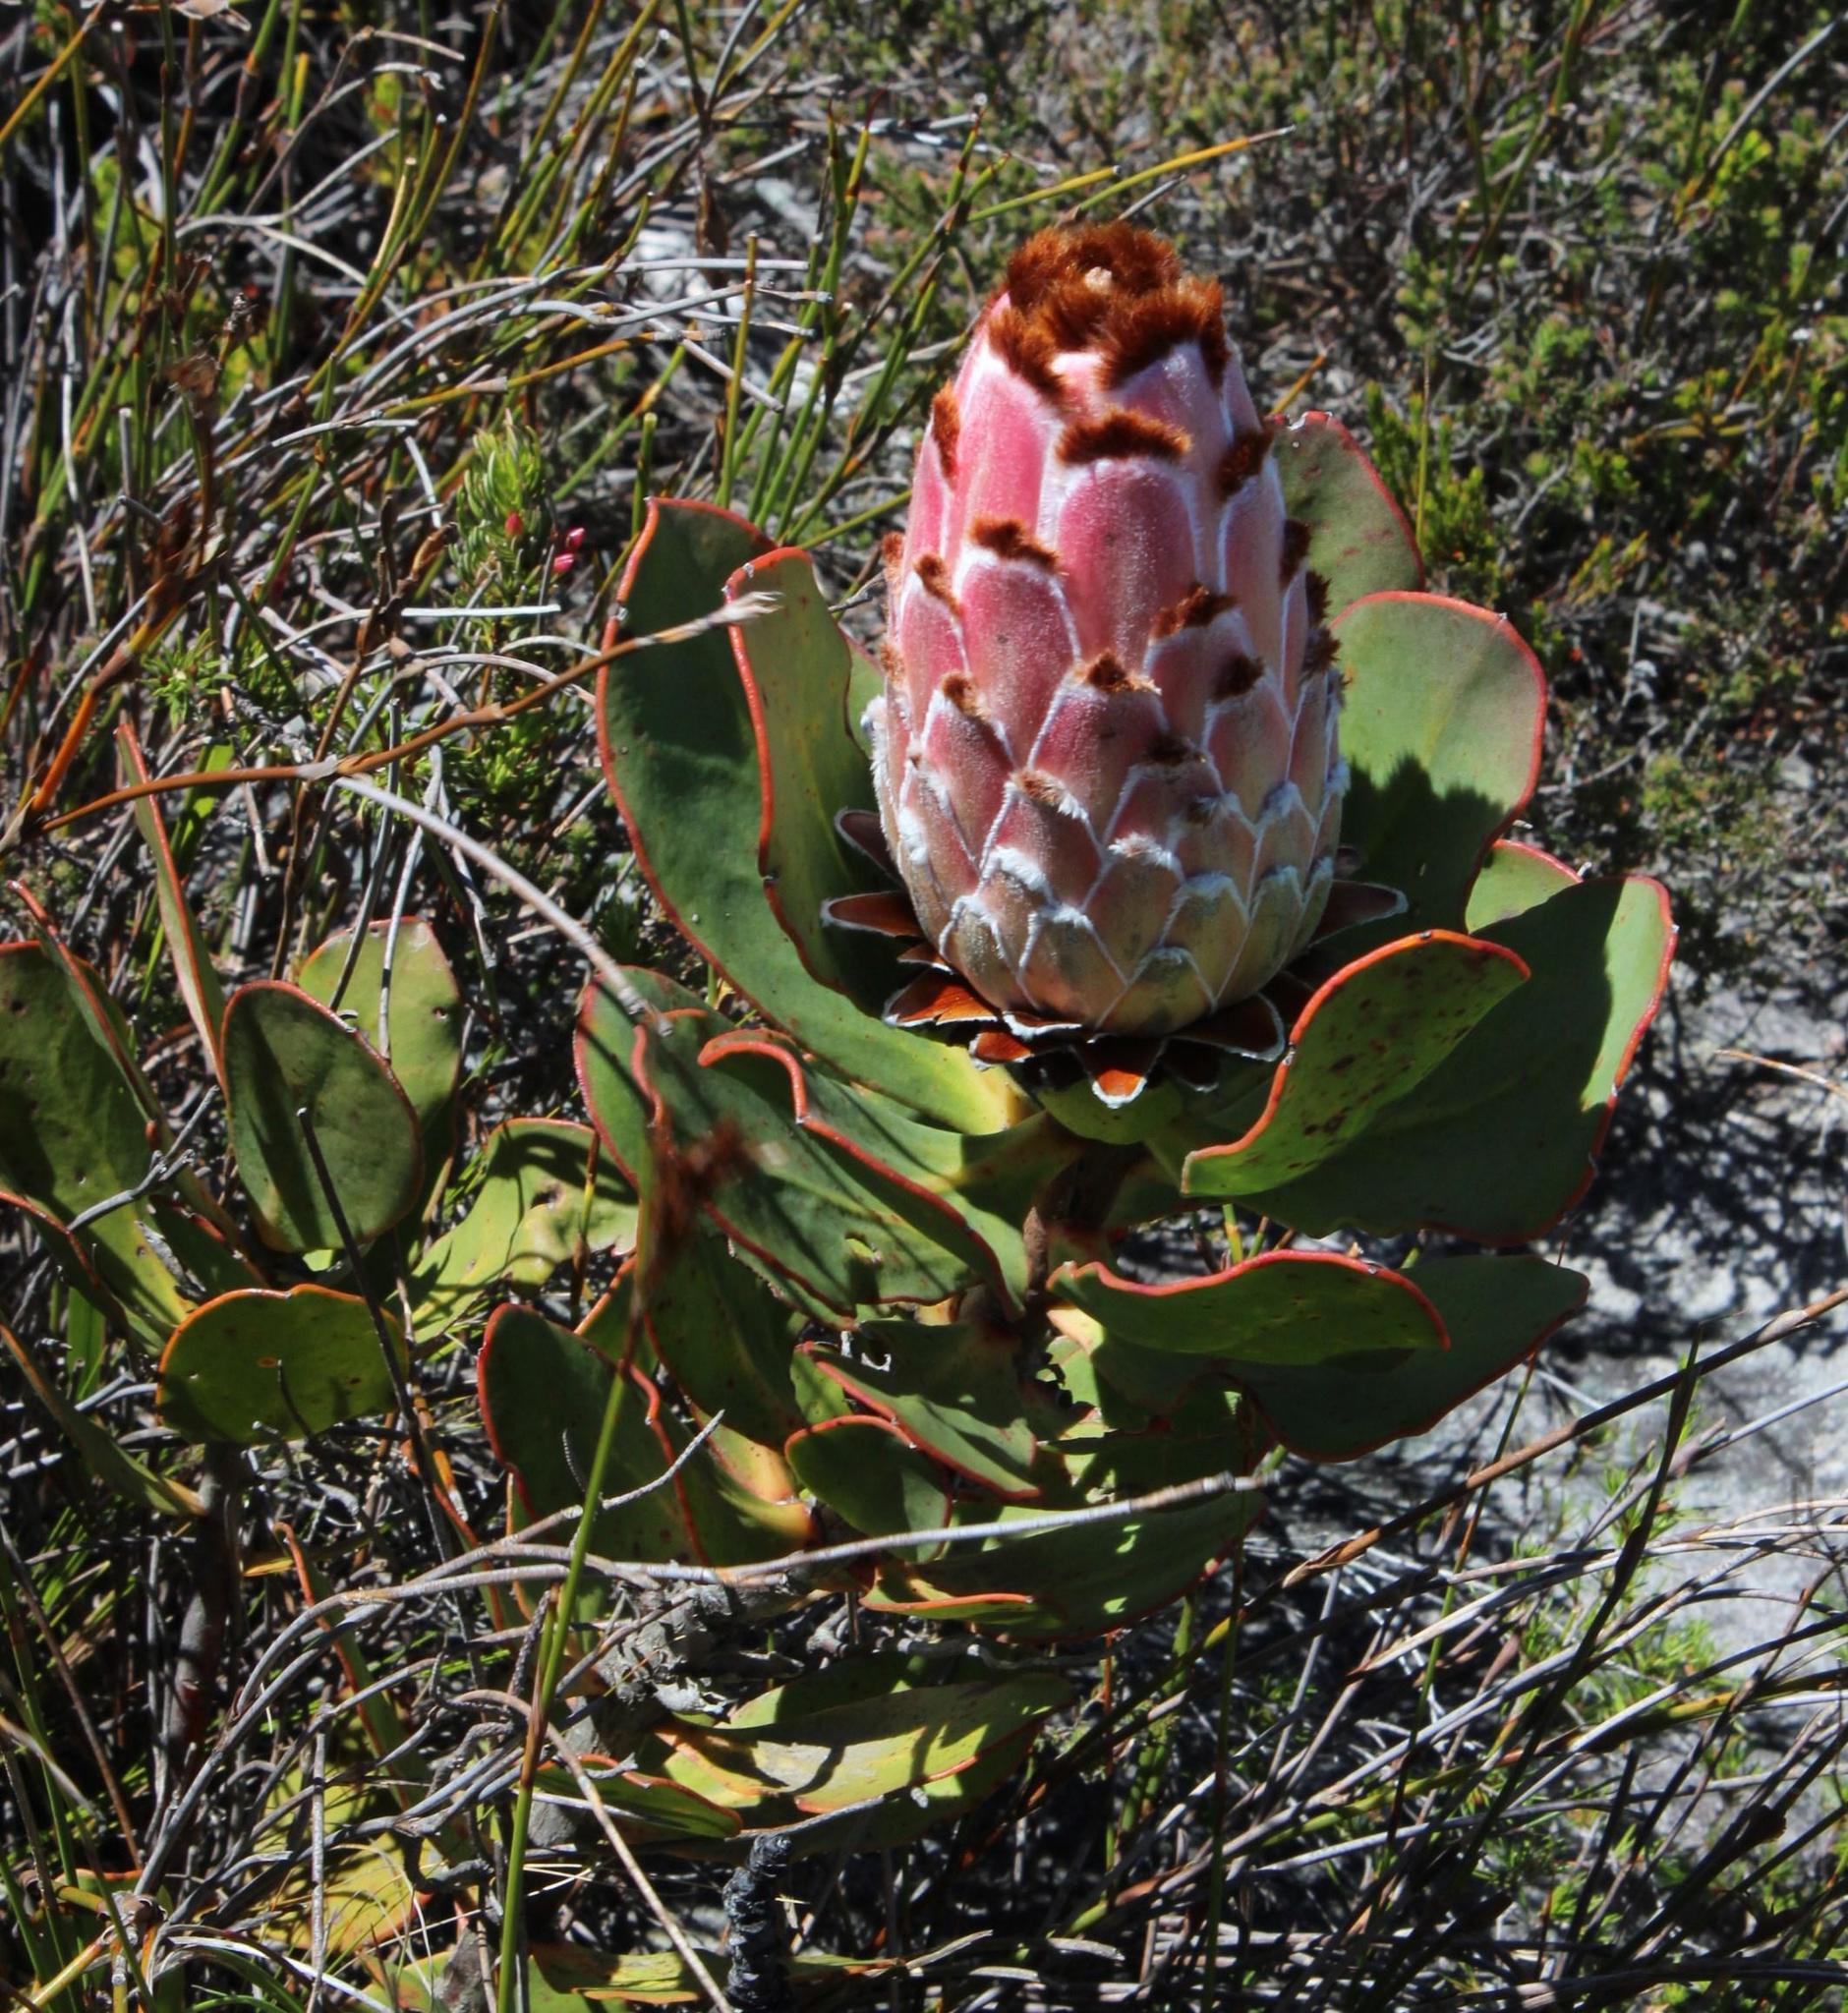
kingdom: Plantae
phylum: Tracheophyta
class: Magnoliopsida
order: Proteales
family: Proteaceae
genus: Protea
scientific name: Protea speciosa
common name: Brown-beard sugarbush
